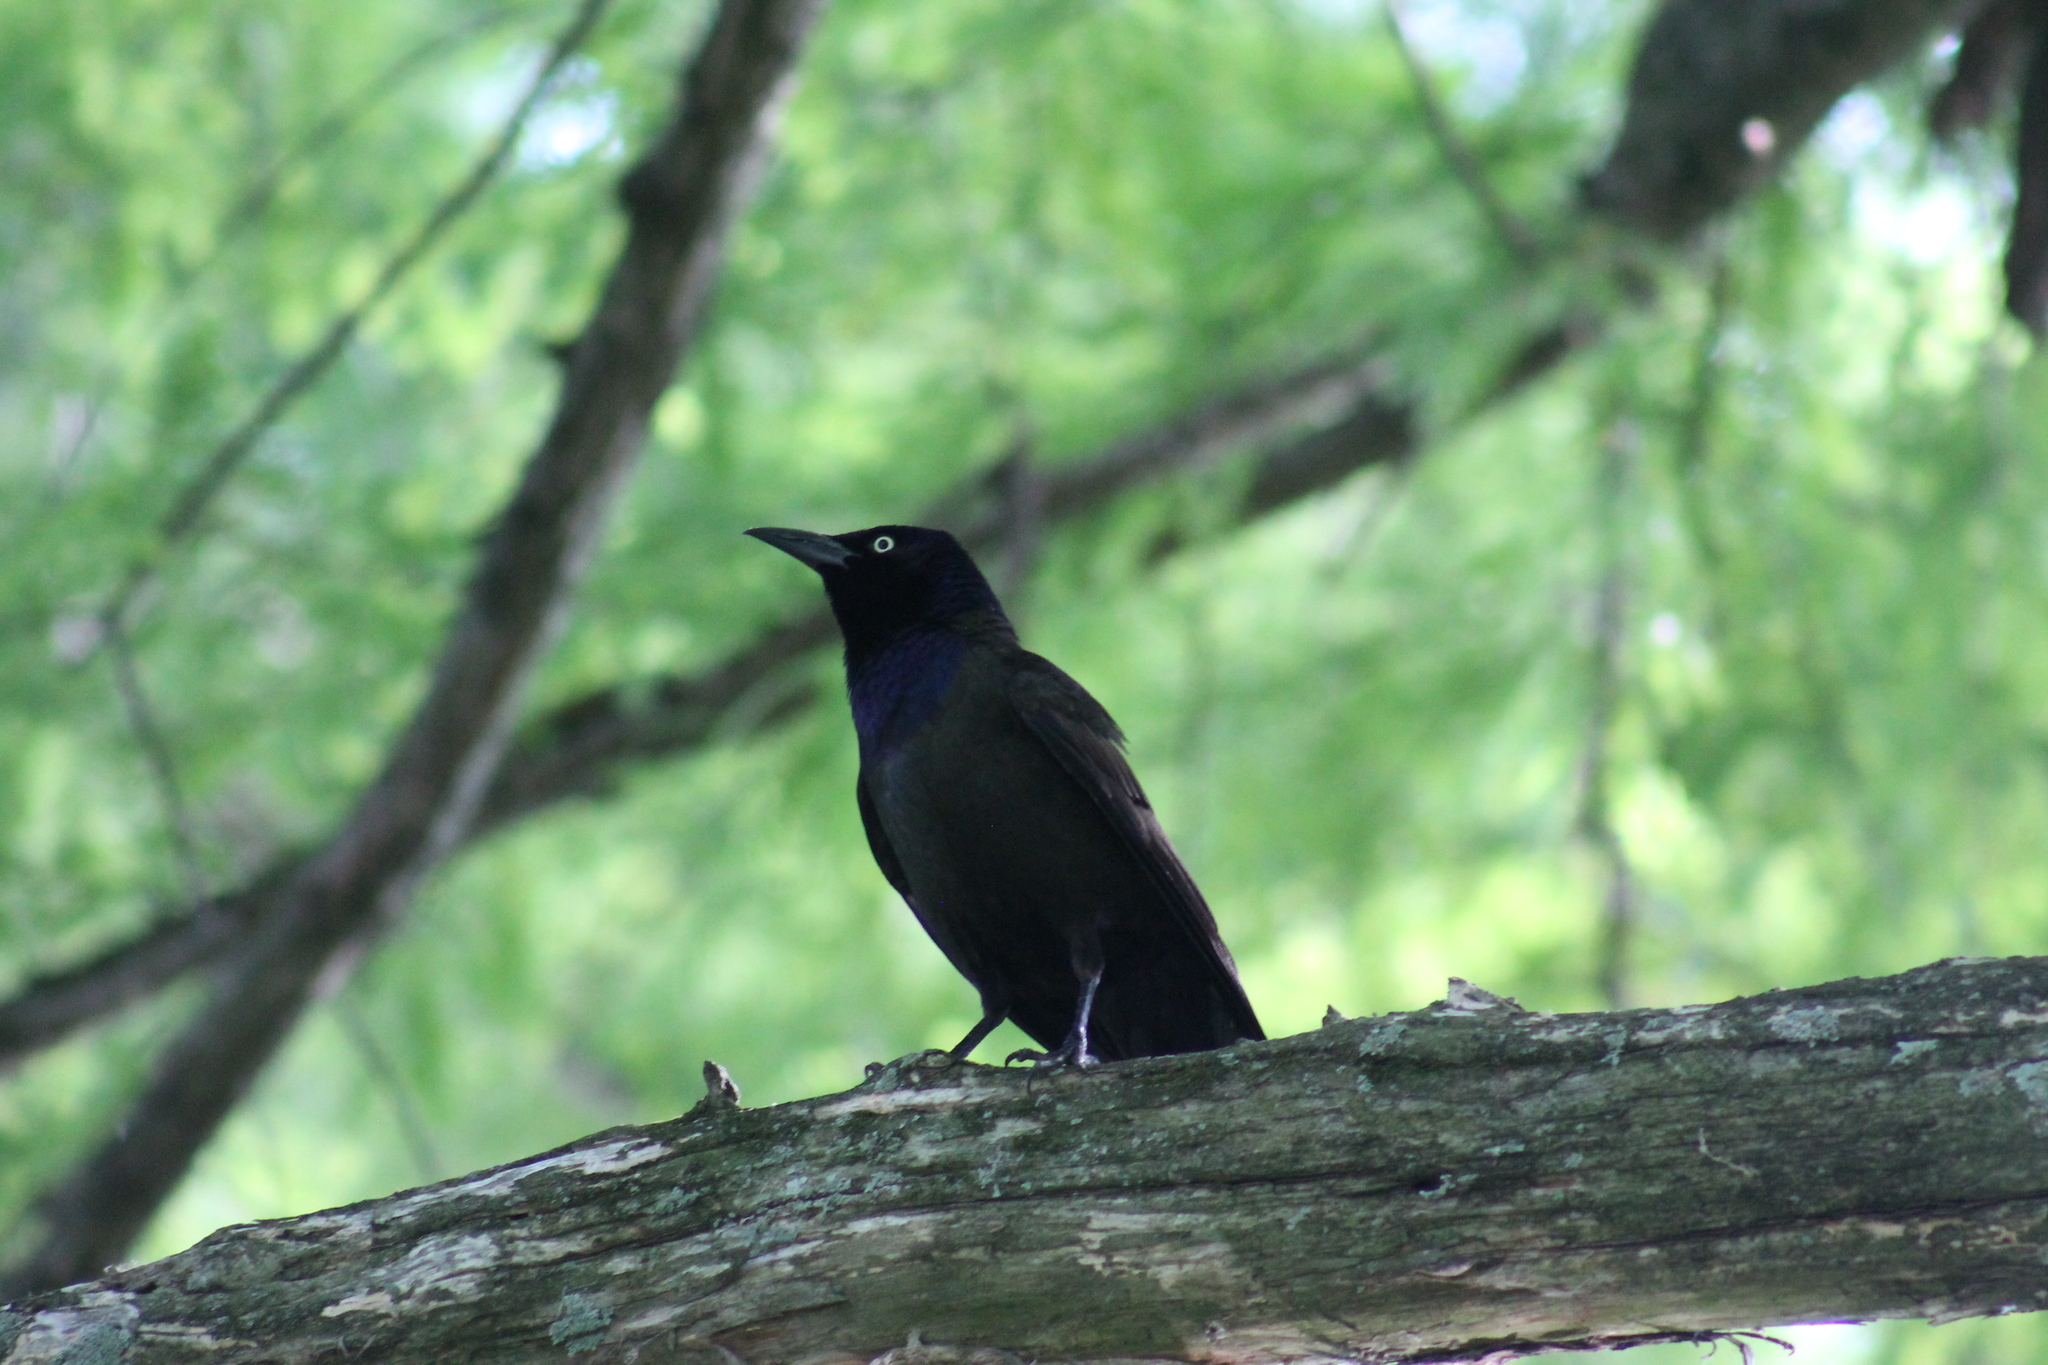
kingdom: Animalia
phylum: Chordata
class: Aves
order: Passeriformes
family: Icteridae
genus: Quiscalus
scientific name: Quiscalus quiscula
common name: Common grackle
